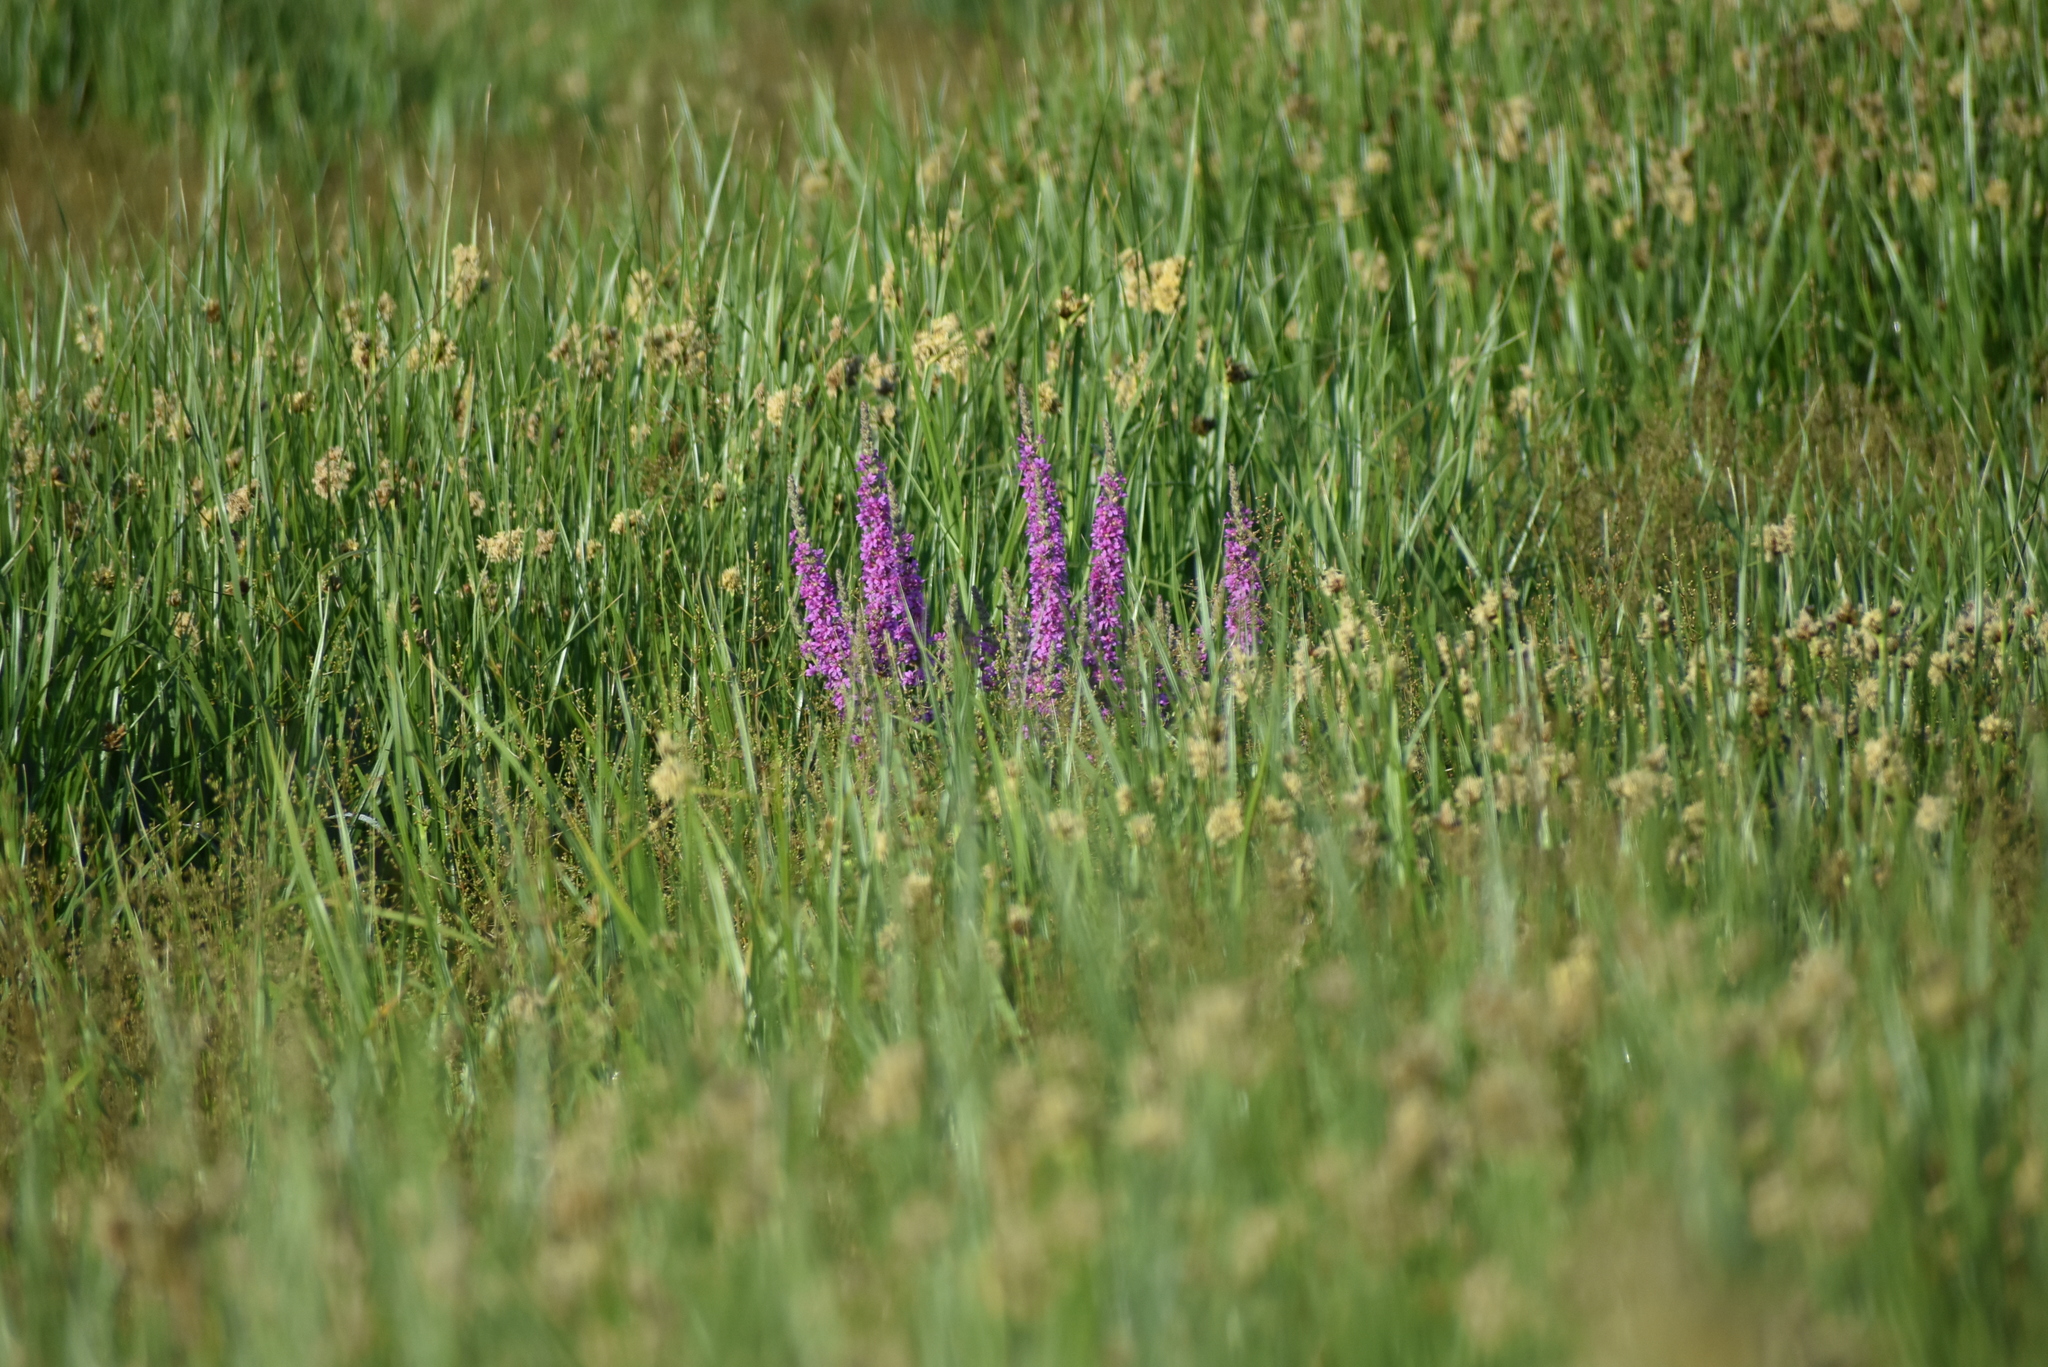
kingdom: Plantae
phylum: Tracheophyta
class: Magnoliopsida
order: Myrtales
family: Lythraceae
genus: Lythrum
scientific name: Lythrum salicaria
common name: Purple loosestrife
